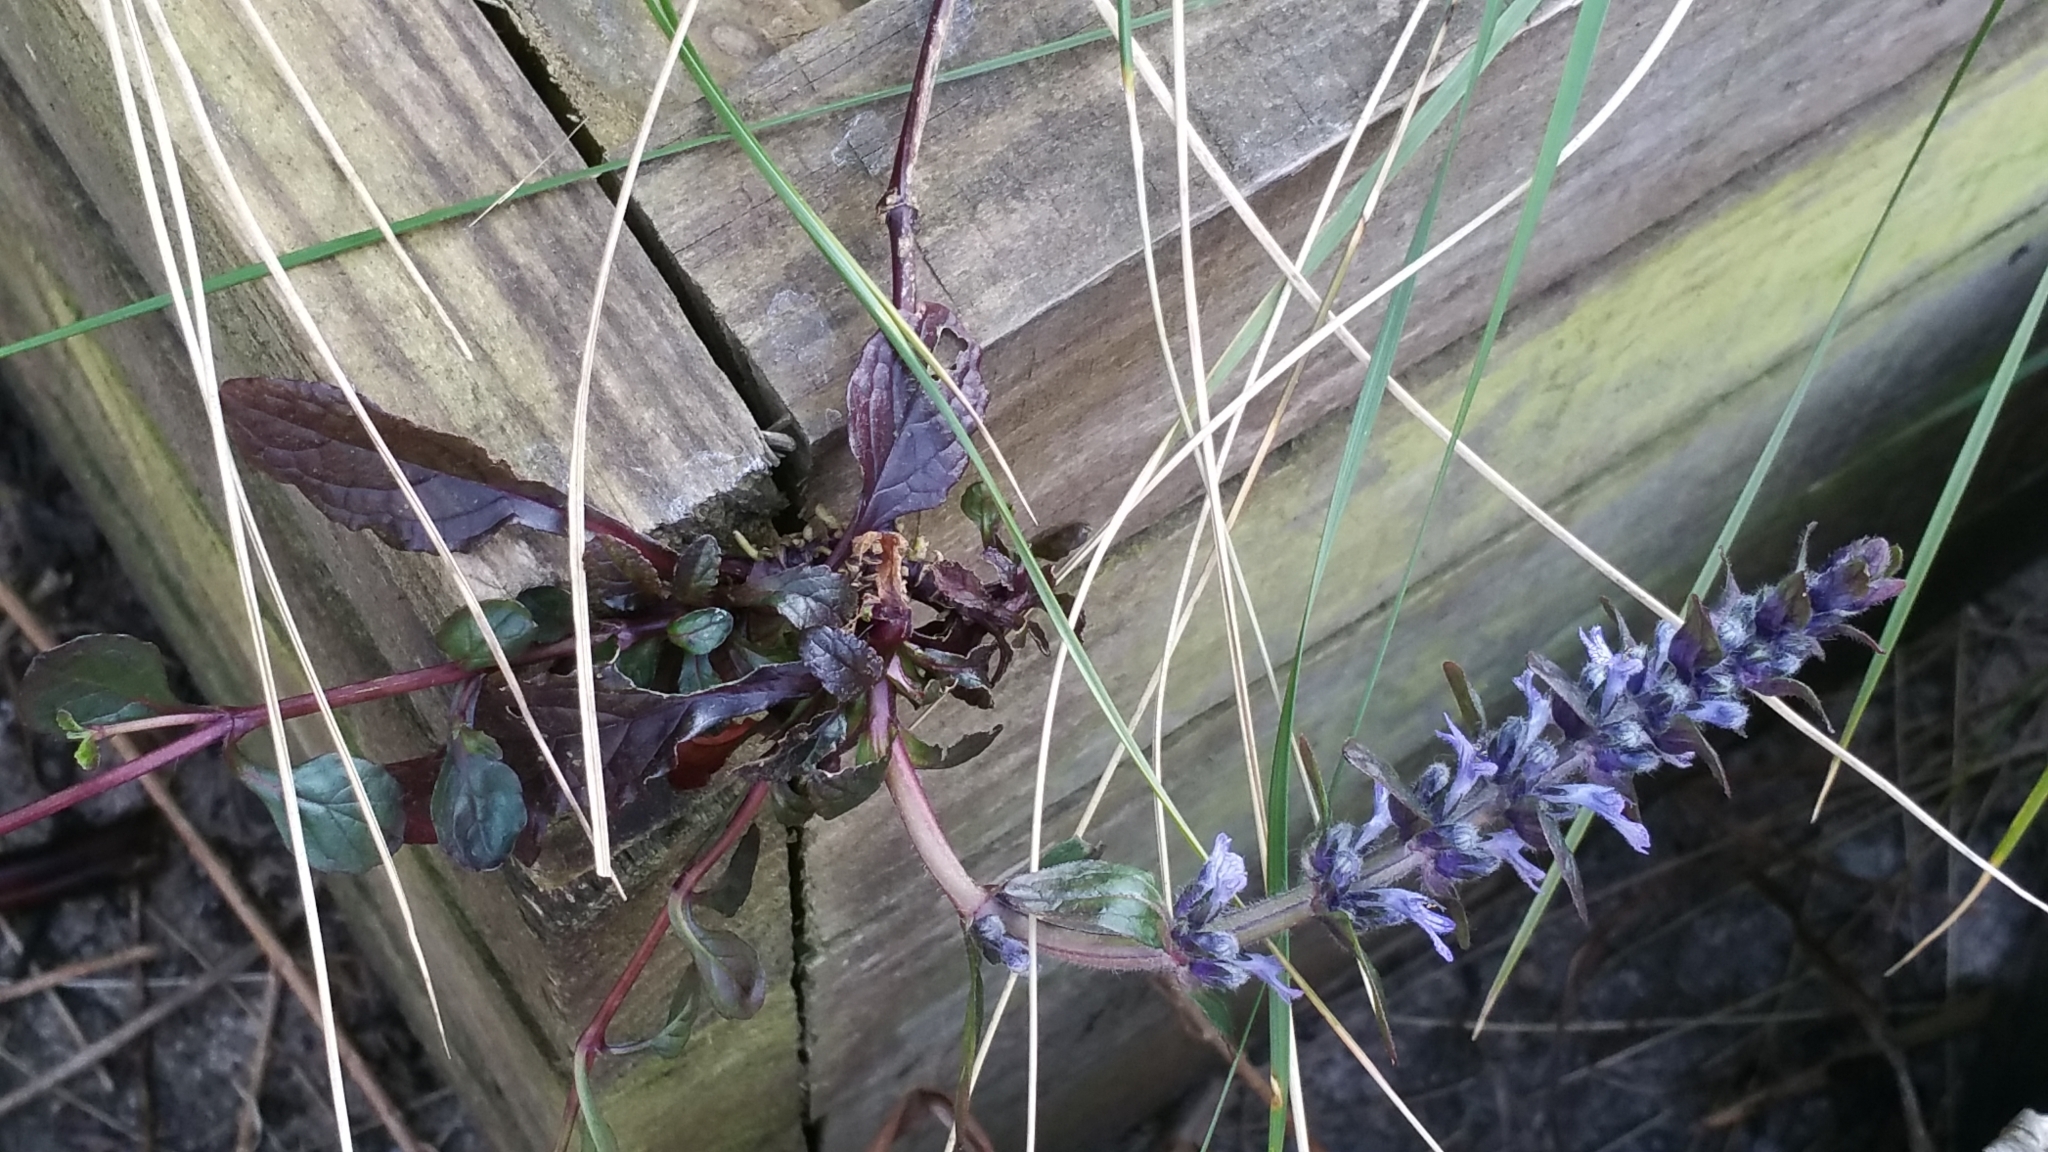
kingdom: Plantae
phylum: Tracheophyta
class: Magnoliopsida
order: Lamiales
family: Lamiaceae
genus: Ajuga
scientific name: Ajuga reptans
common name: Bugle
